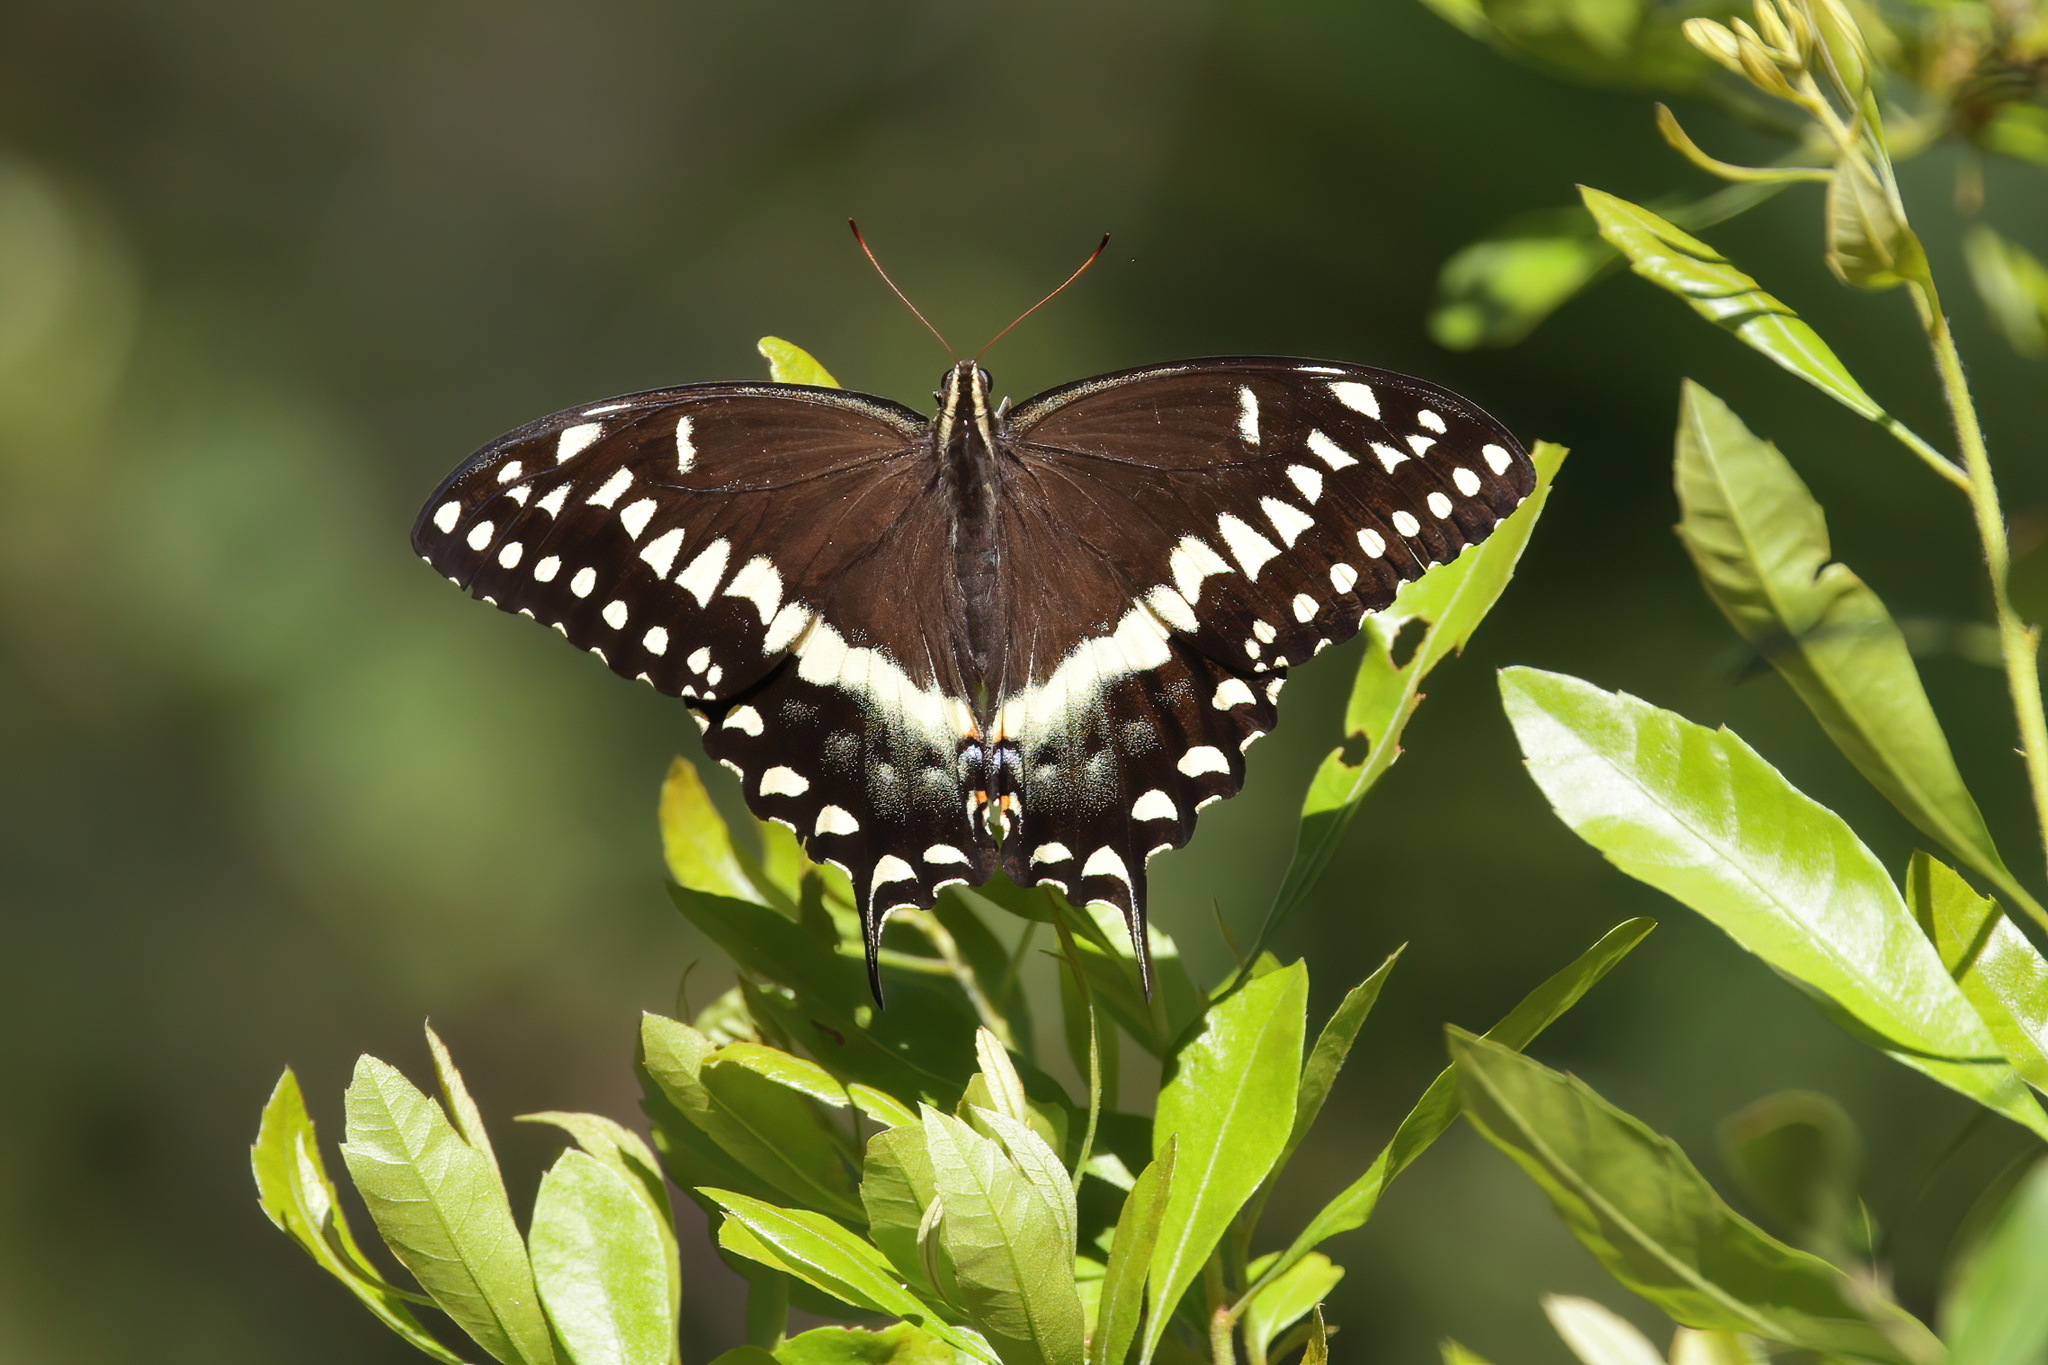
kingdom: Animalia
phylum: Arthropoda
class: Insecta
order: Lepidoptera
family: Papilionidae
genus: Papilio
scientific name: Papilio palamedes
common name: Palamedes swallowtail
